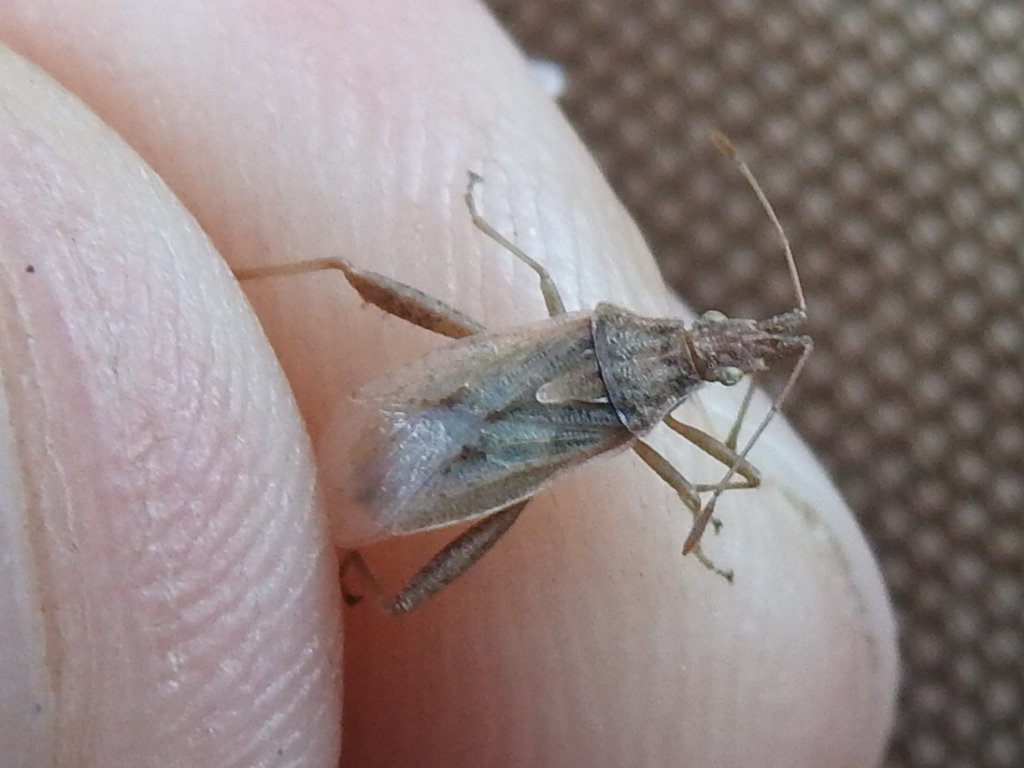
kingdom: Animalia
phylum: Arthropoda
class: Insecta
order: Hemiptera
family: Rhopalidae
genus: Harmostes
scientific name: Harmostes reflexulus
